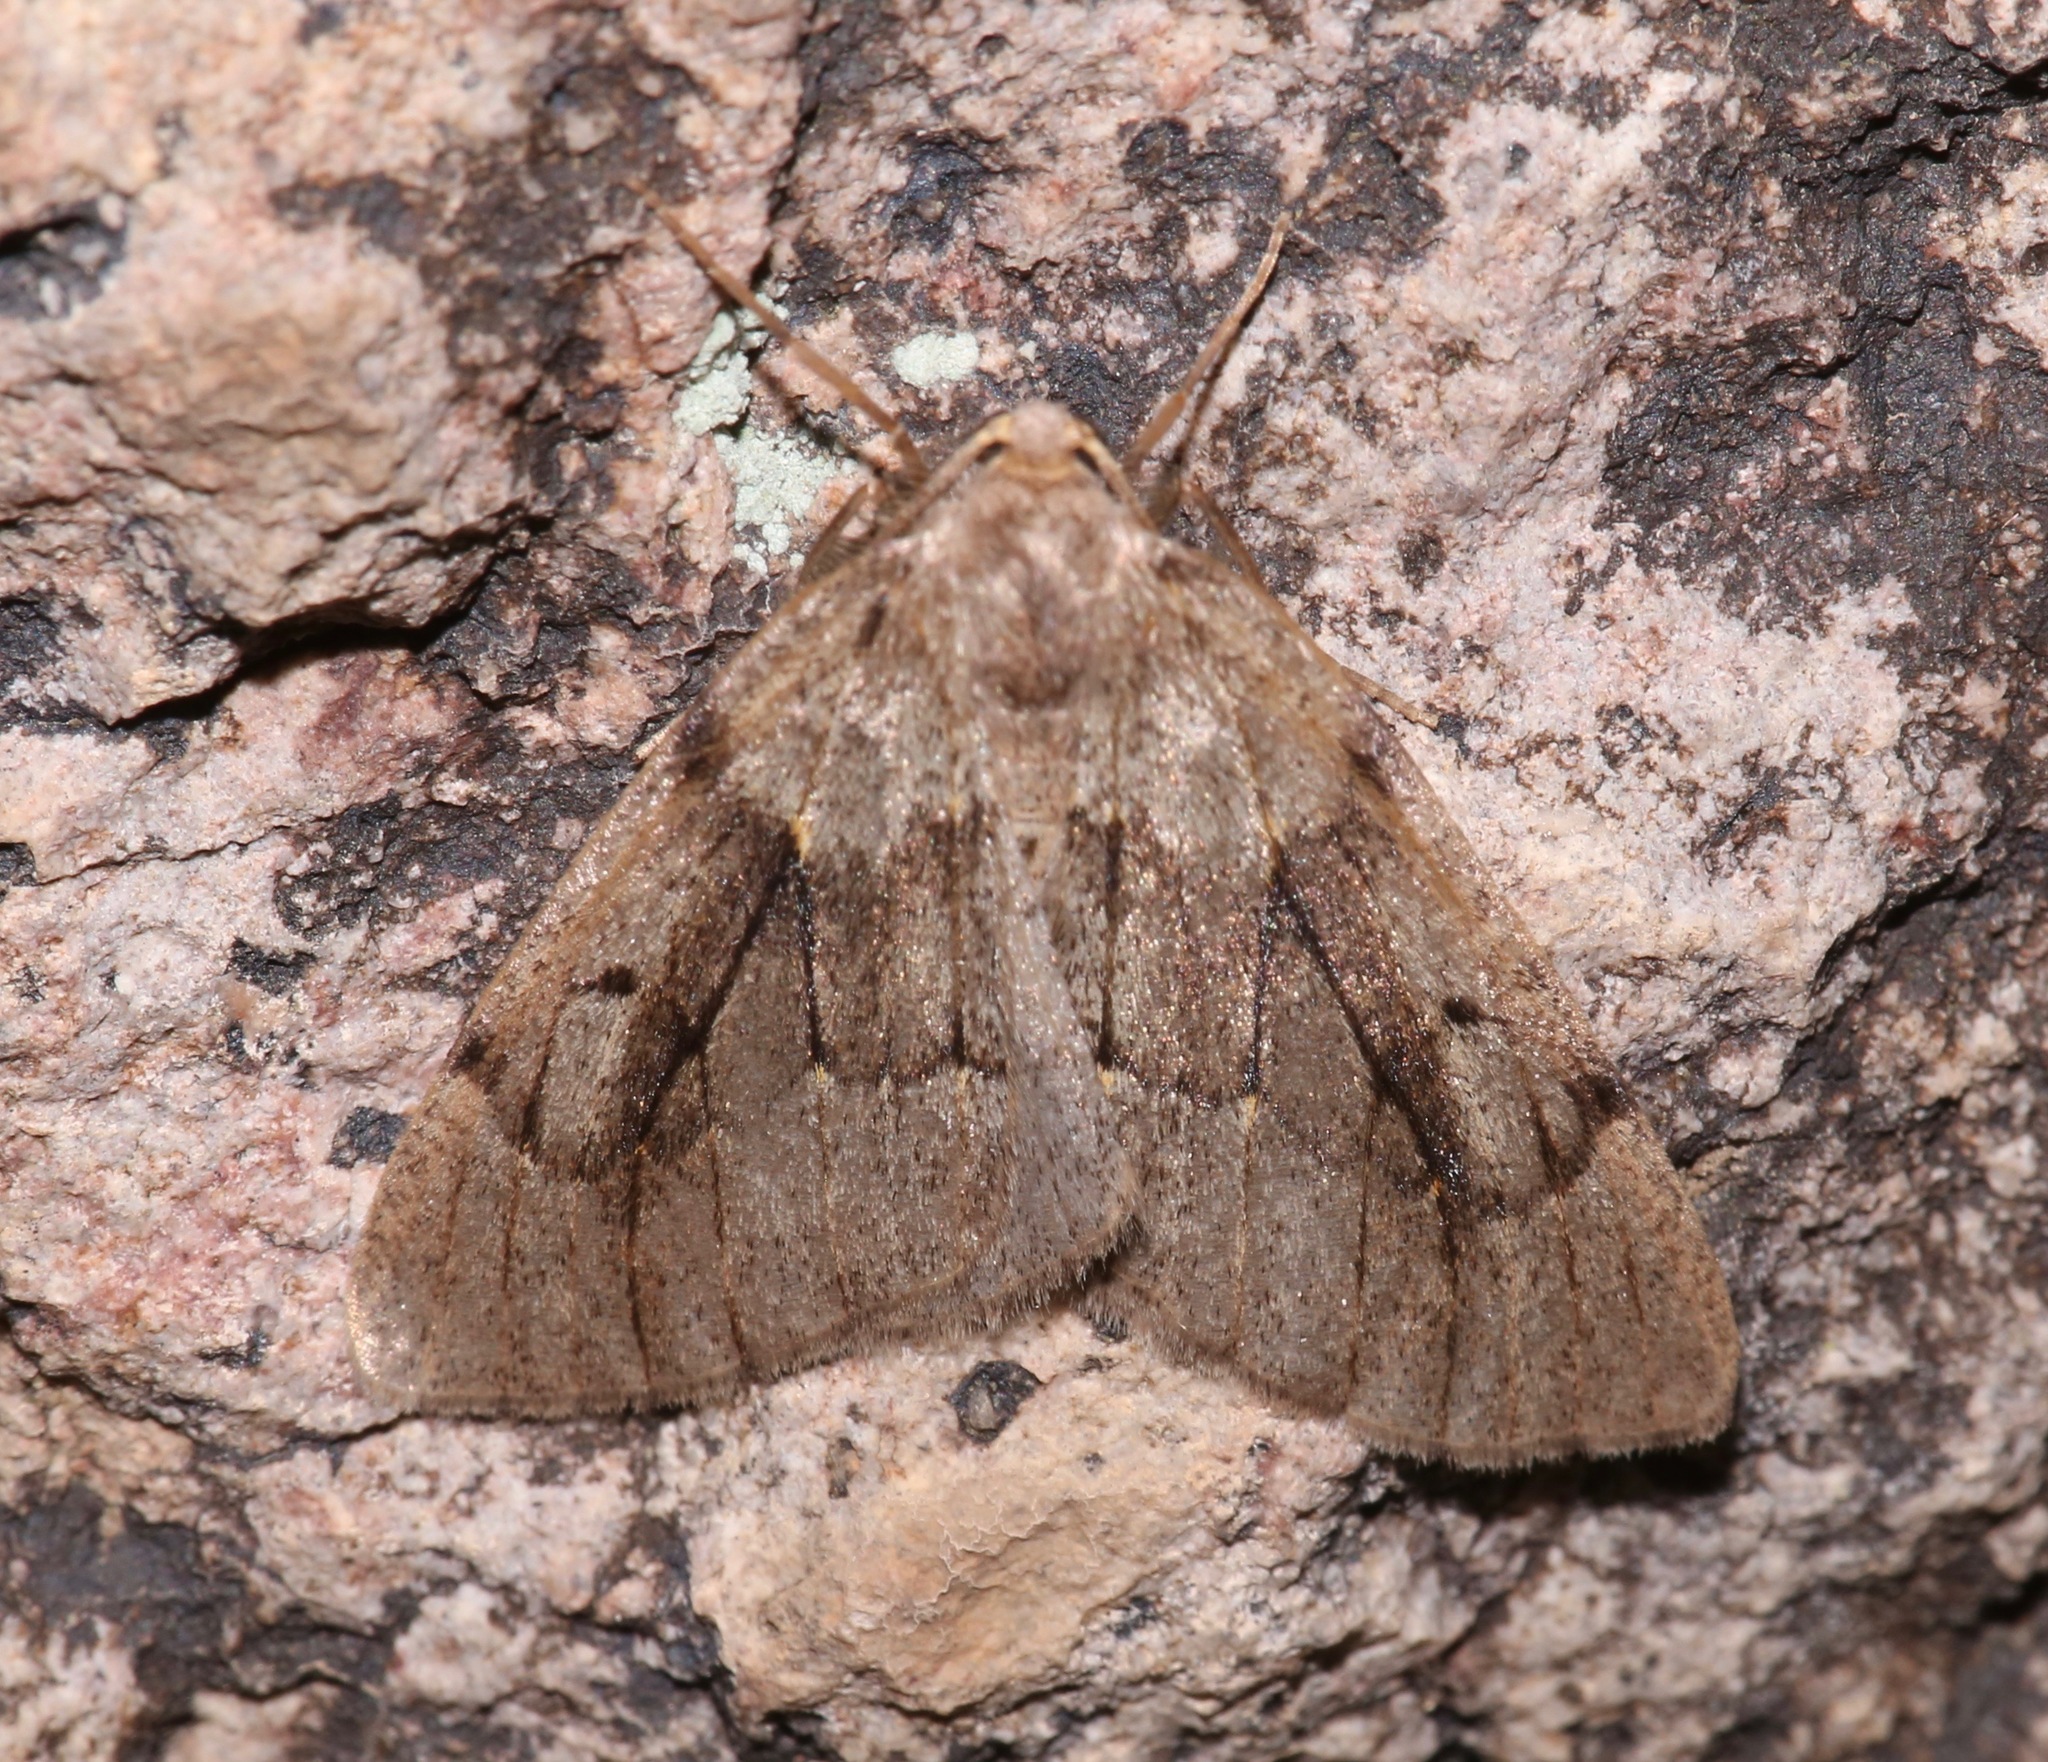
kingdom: Animalia
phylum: Arthropoda
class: Insecta
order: Lepidoptera
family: Geometridae
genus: Nepytia
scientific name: Nepytia swetti
